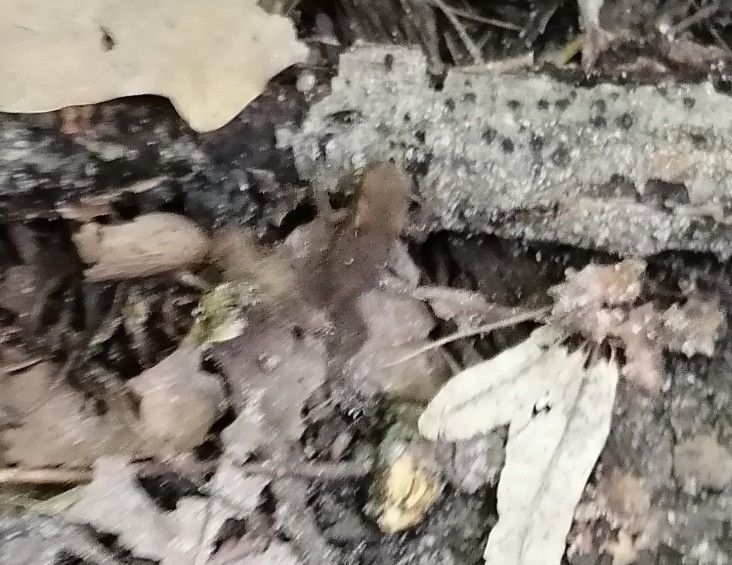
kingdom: Animalia
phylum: Chordata
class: Amphibia
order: Anura
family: Bufonidae
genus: Bufo
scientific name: Bufo bufo
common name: Common toad
